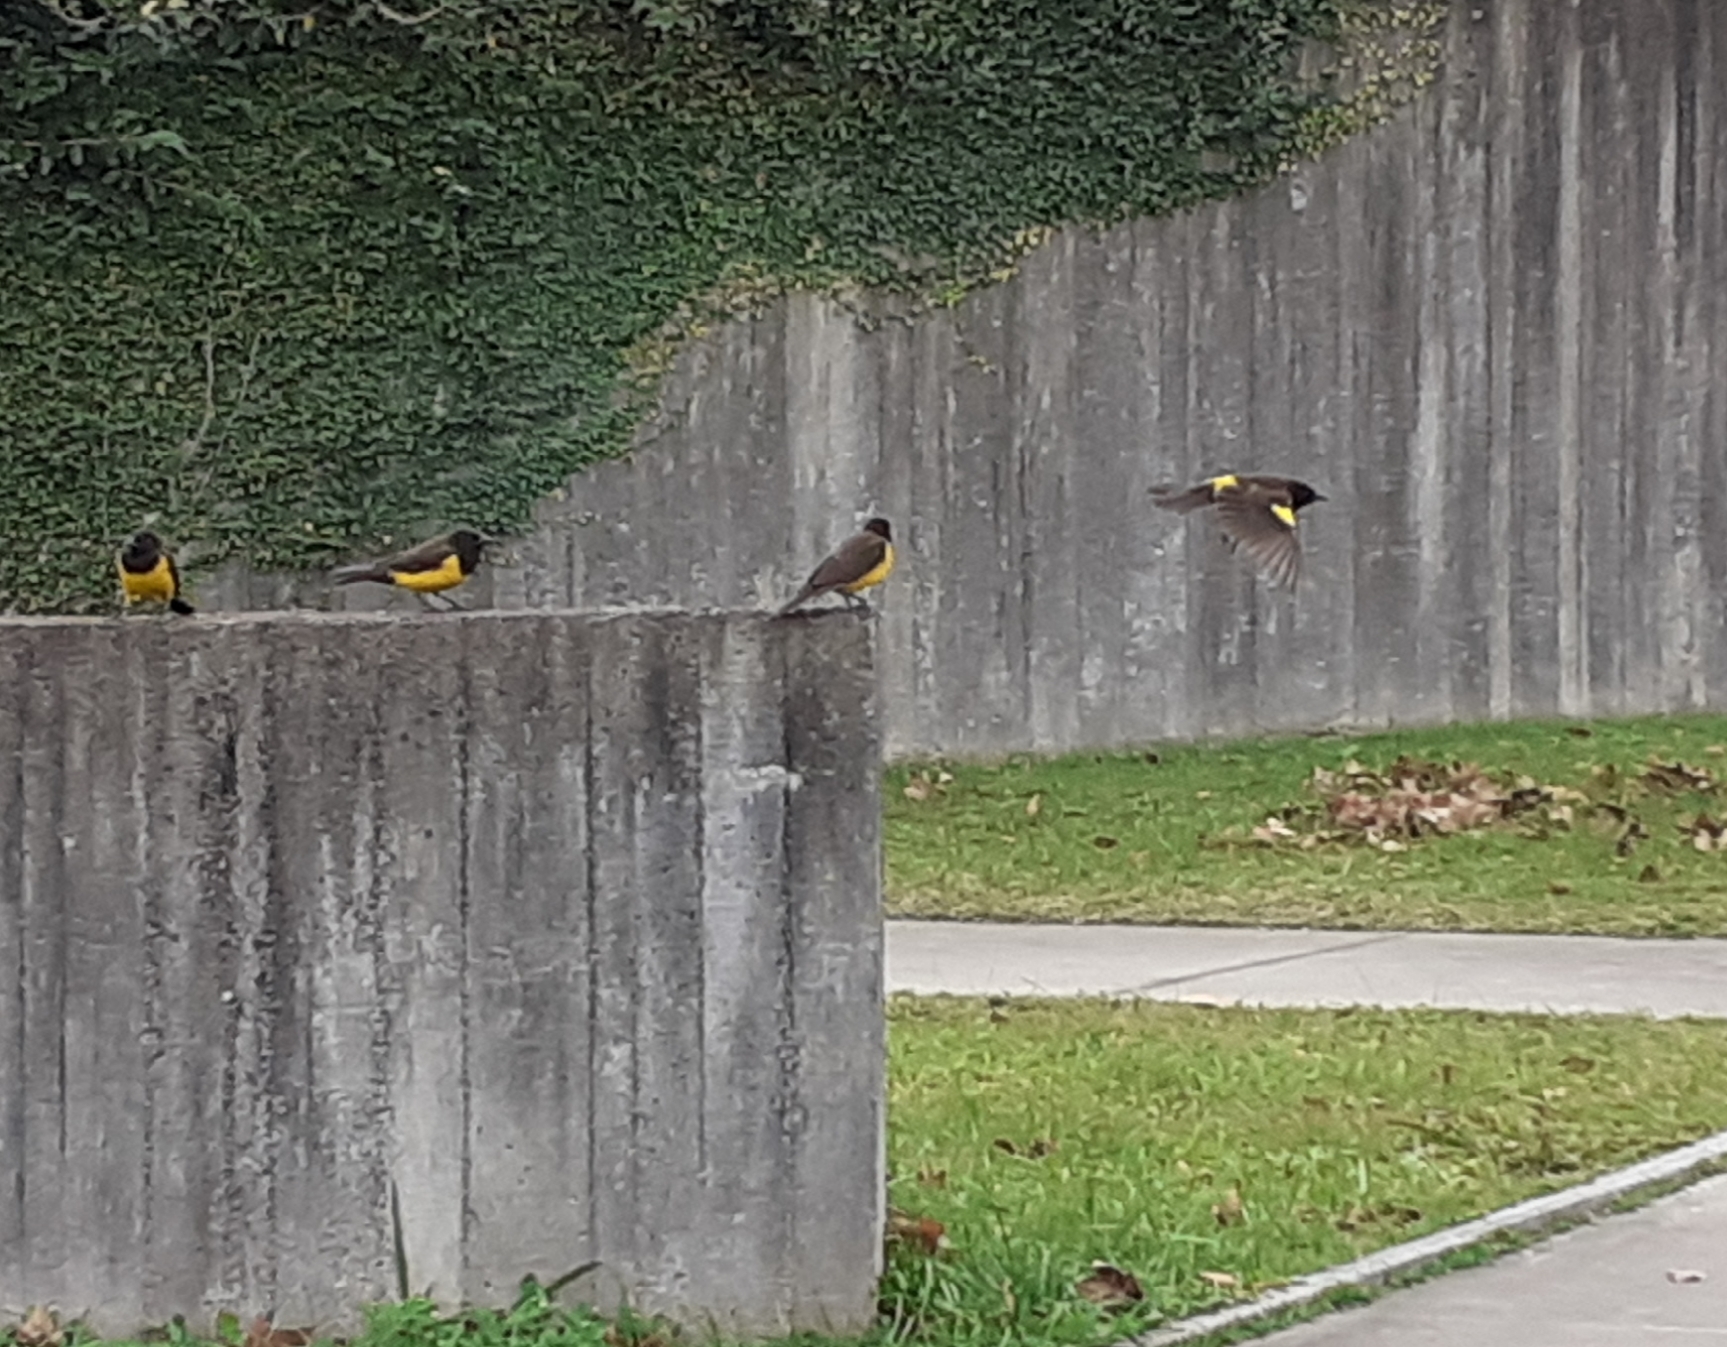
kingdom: Animalia
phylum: Chordata
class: Aves
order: Passeriformes
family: Icteridae
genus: Pseudoleistes
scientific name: Pseudoleistes guirahuro
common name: Yellow-rumped marshbird
